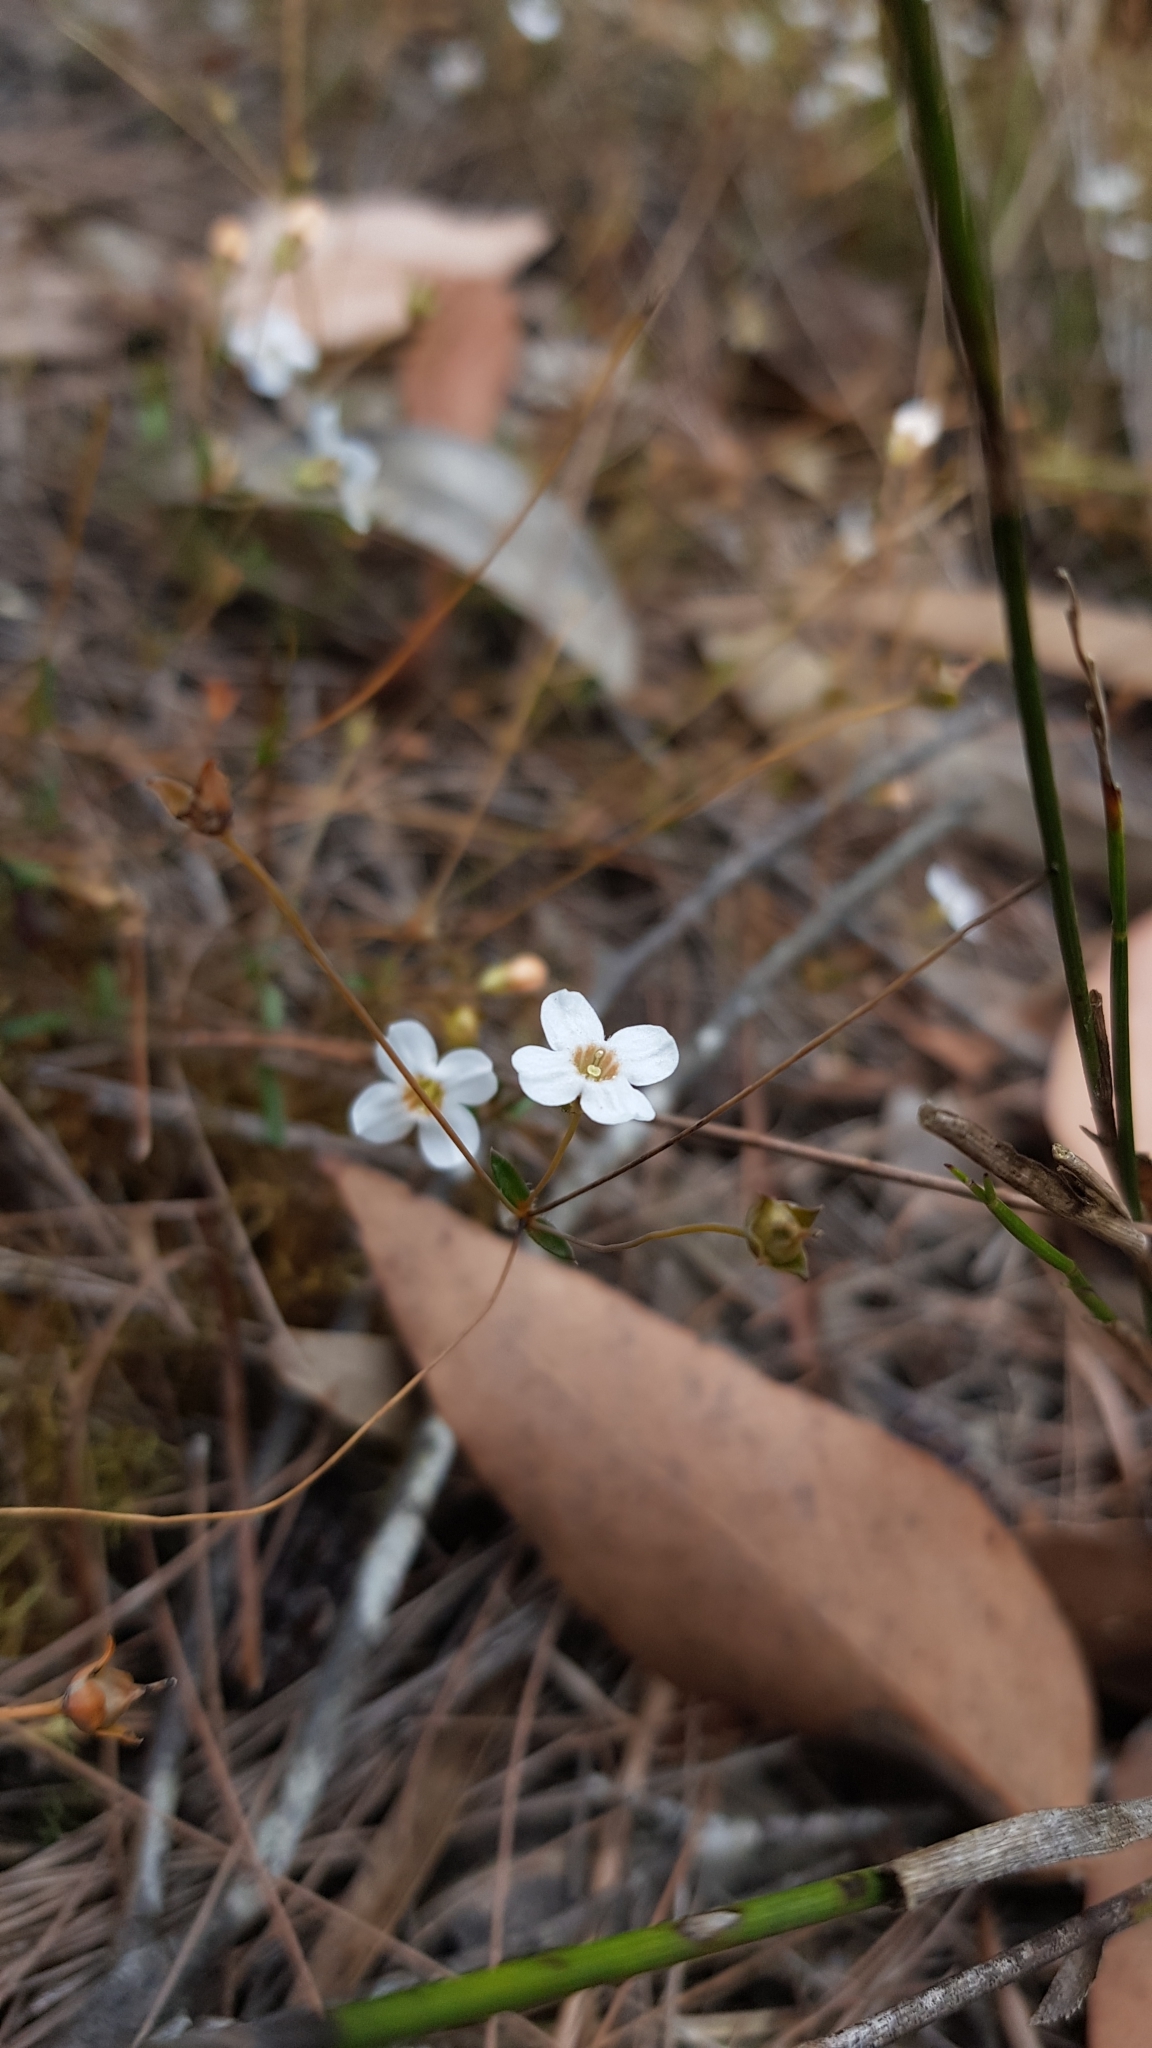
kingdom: Plantae
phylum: Tracheophyta
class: Magnoliopsida
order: Gentianales
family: Loganiaceae
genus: Mitrasacme
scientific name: Mitrasacme polymorpha
